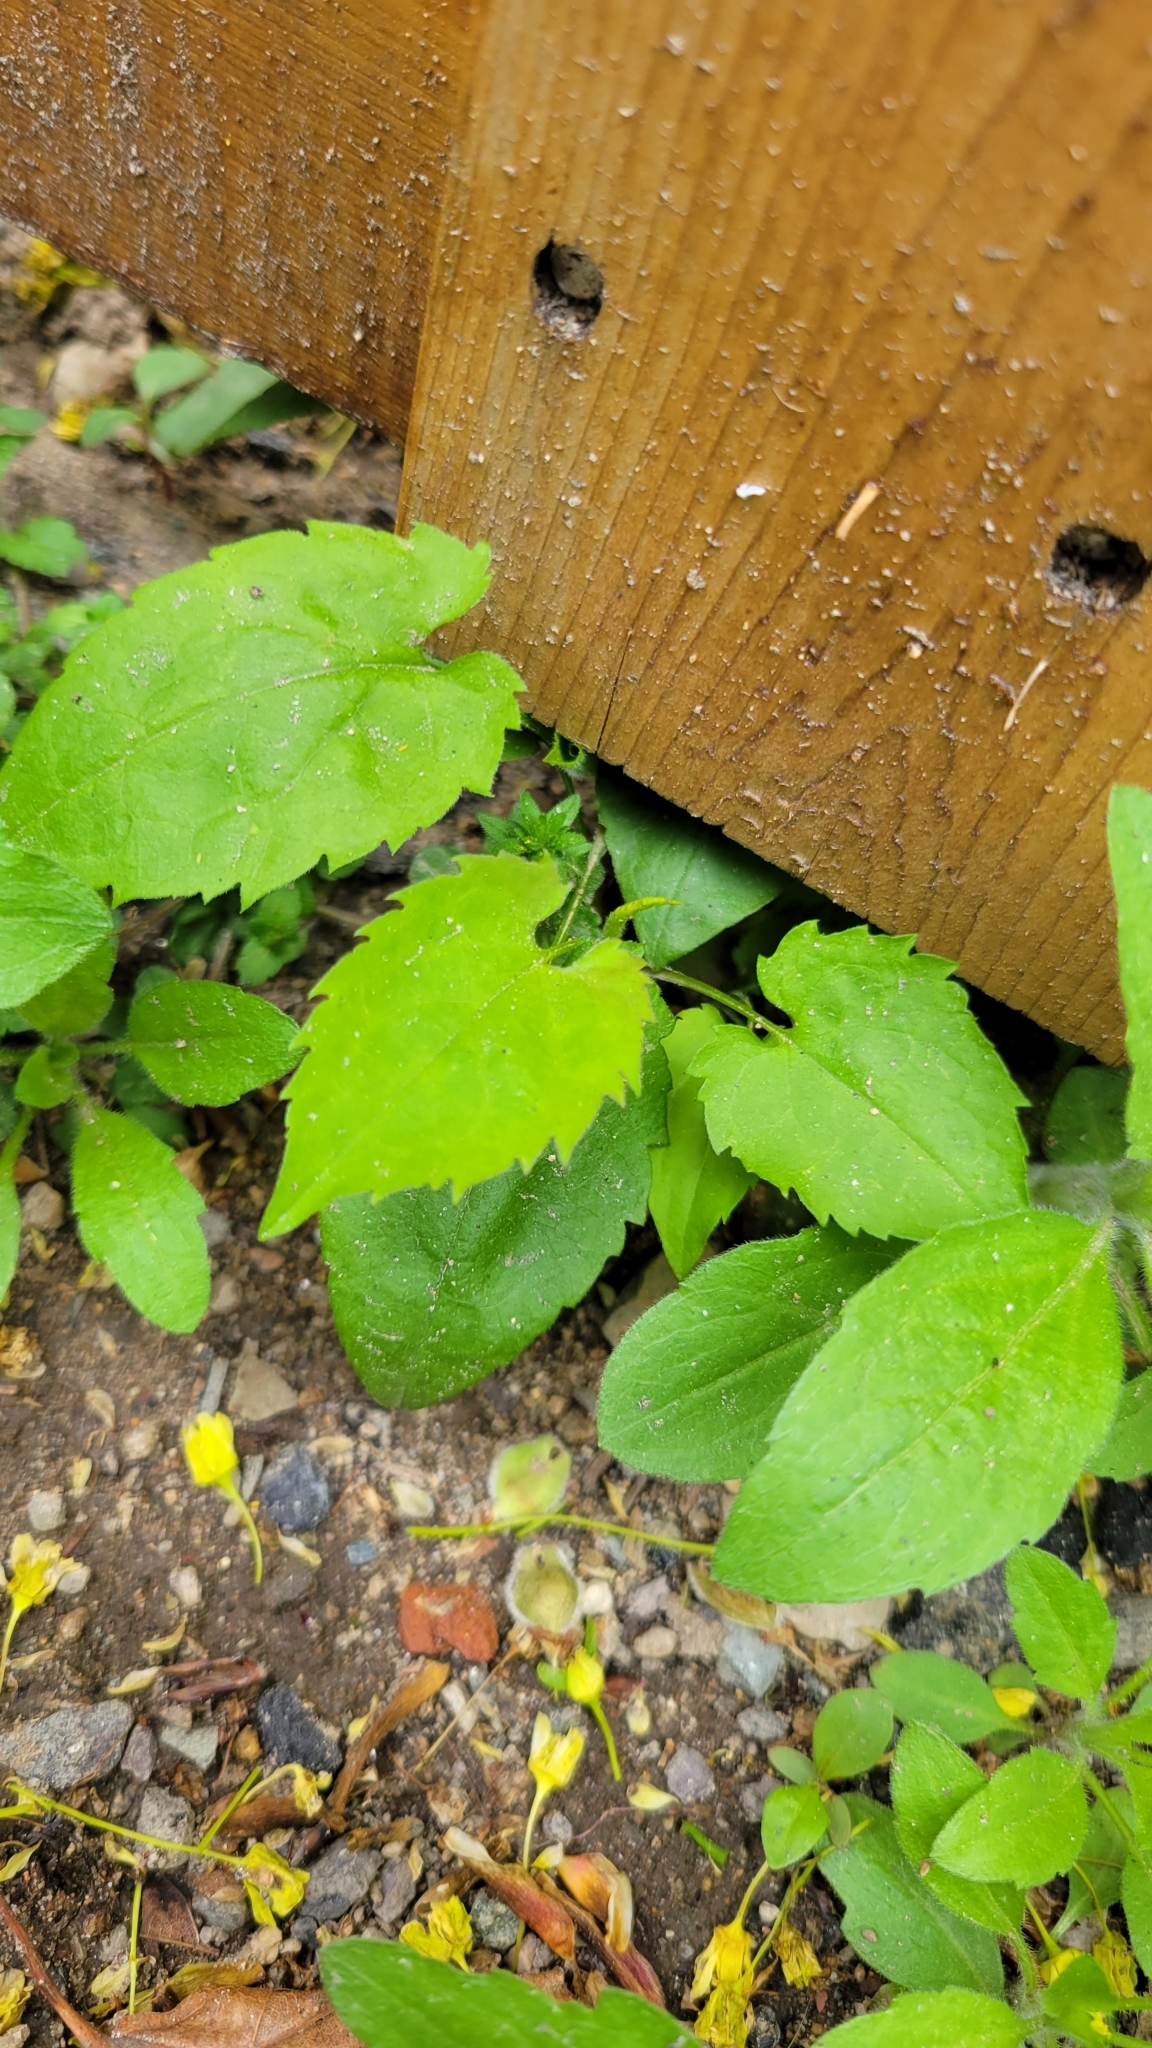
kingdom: Plantae
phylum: Tracheophyta
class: Magnoliopsida
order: Asterales
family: Asteraceae
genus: Symphyotrichum
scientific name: Symphyotrichum cordifolium
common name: Beeweed
